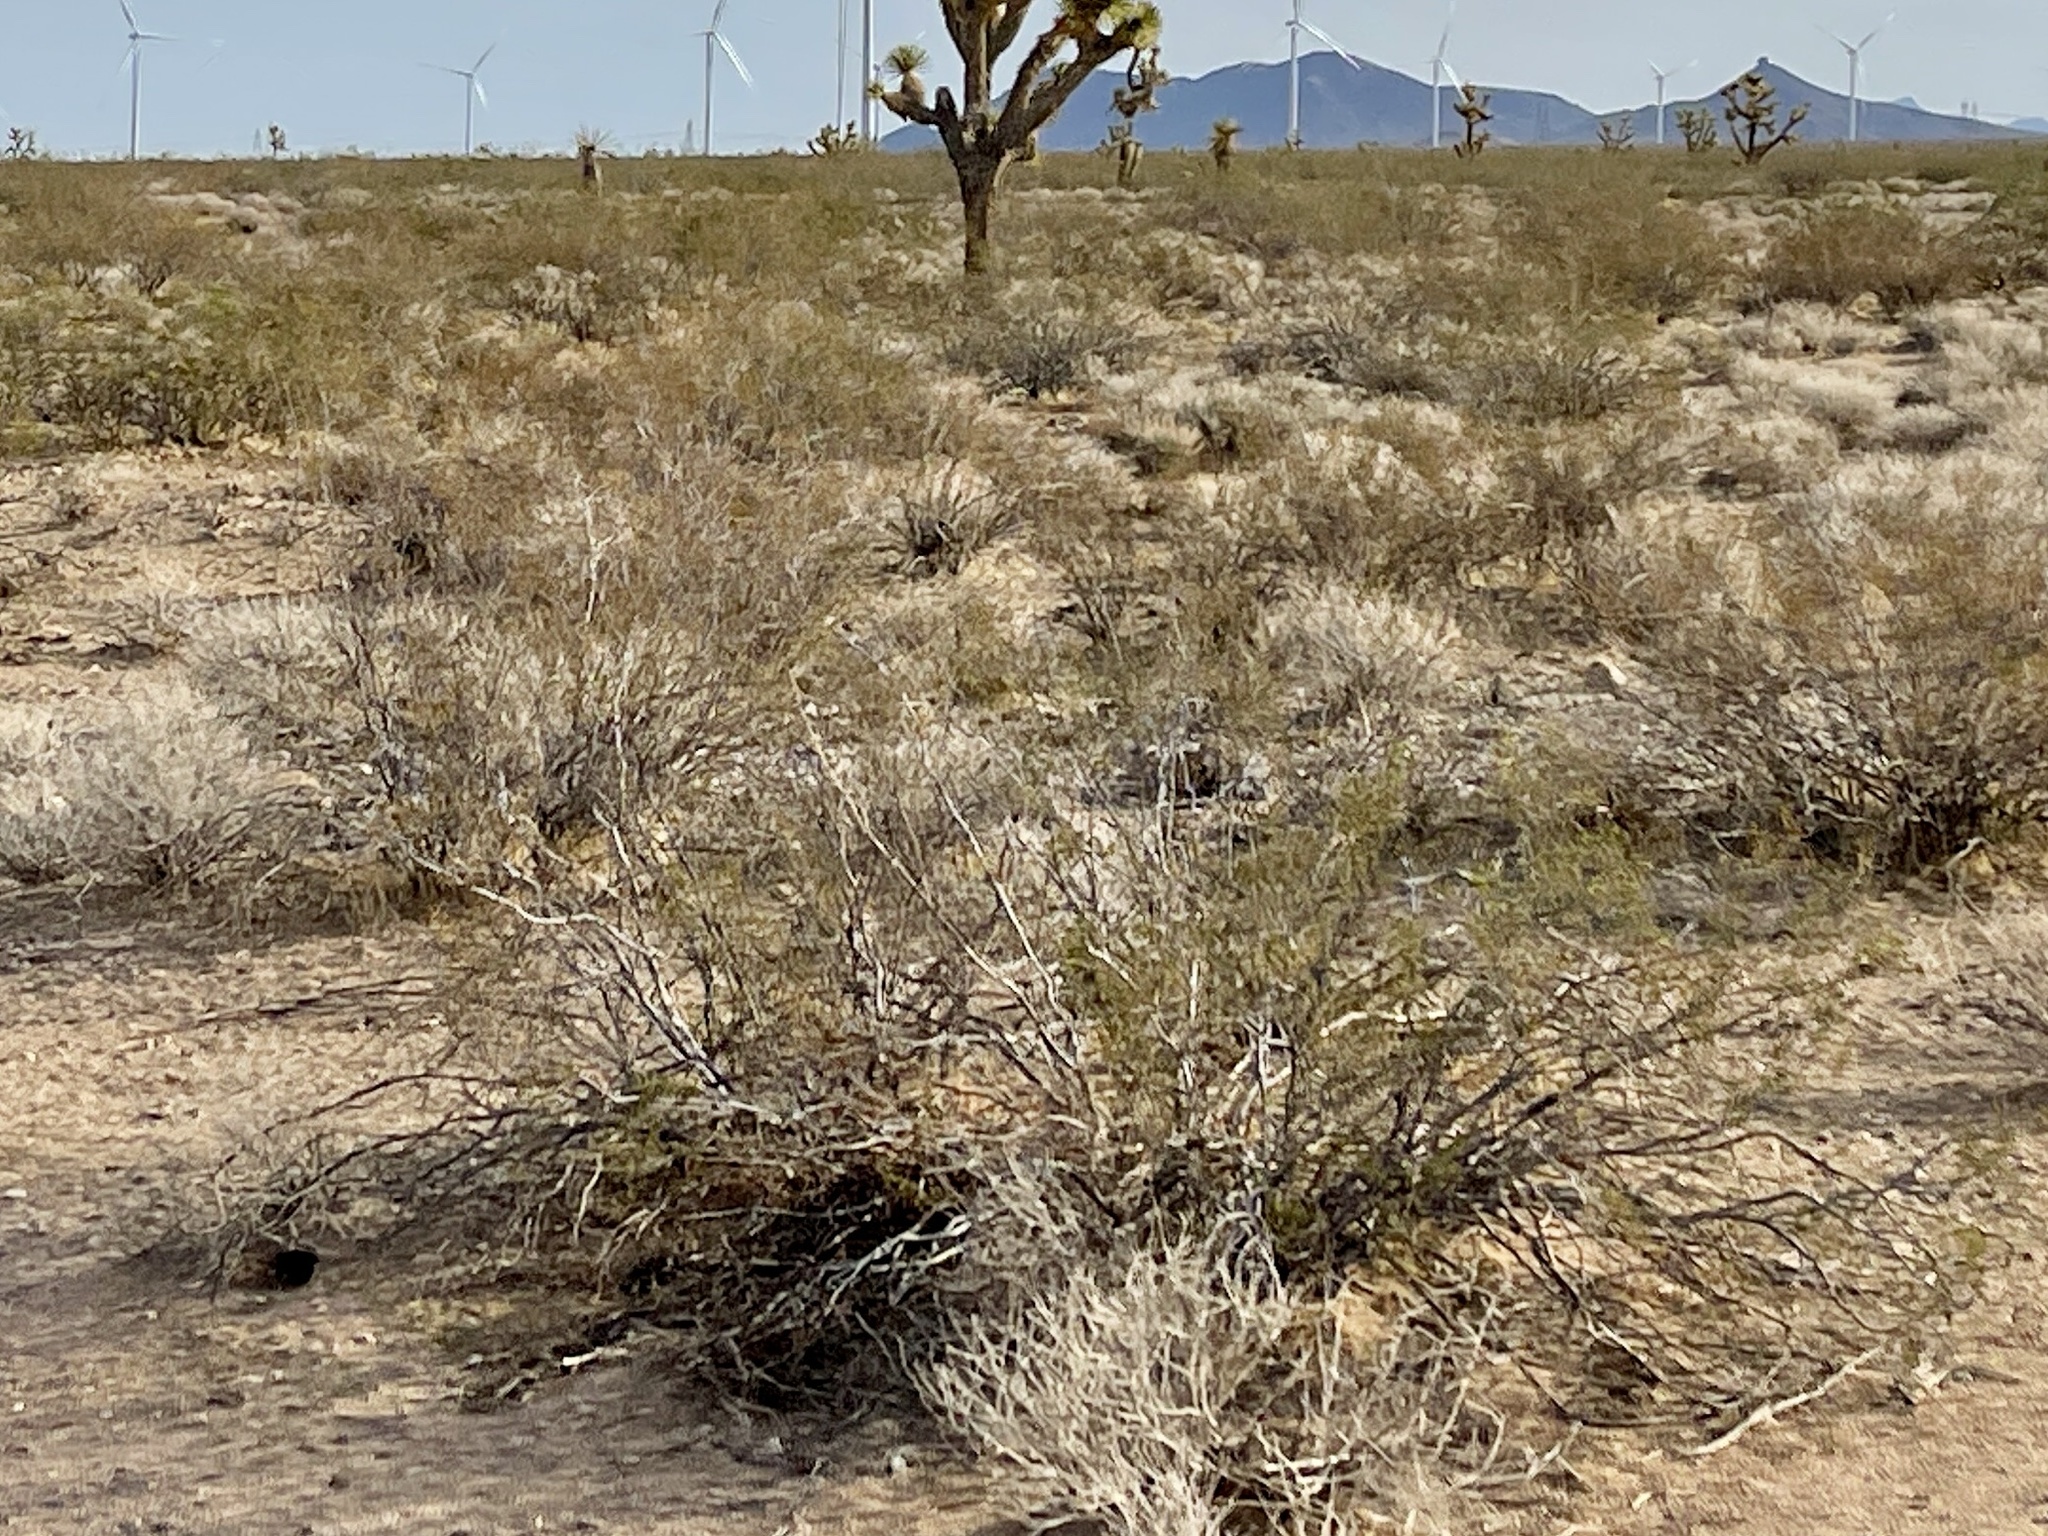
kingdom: Plantae
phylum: Tracheophyta
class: Magnoliopsida
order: Zygophyllales
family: Zygophyllaceae
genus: Larrea
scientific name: Larrea tridentata
